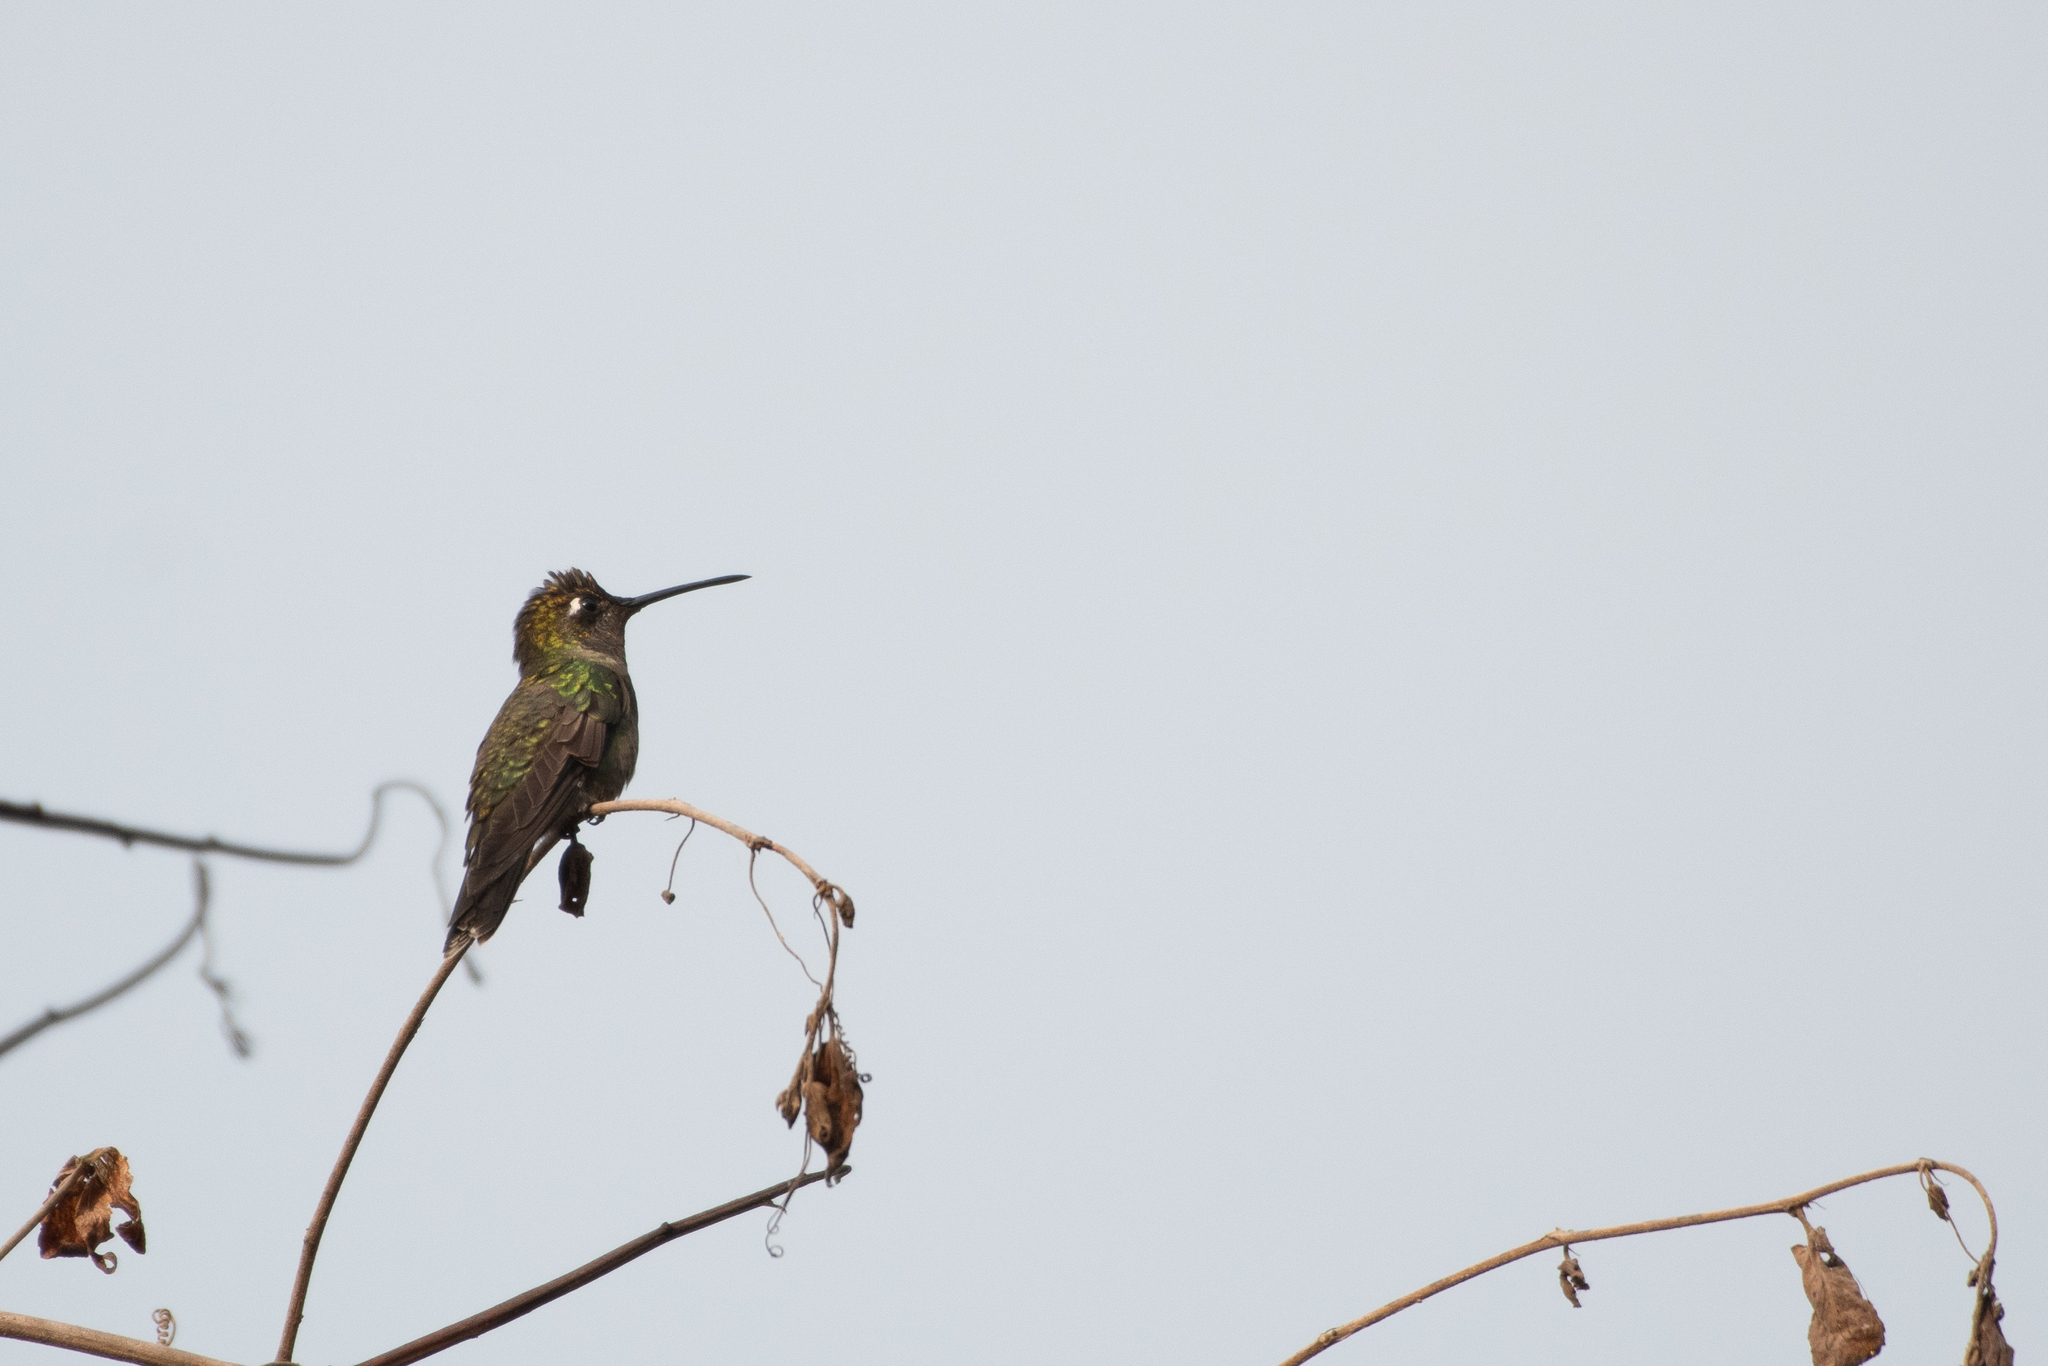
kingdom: Animalia
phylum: Chordata
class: Aves
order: Apodiformes
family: Trochilidae
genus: Eugenes
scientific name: Eugenes fulgens
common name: Magnificent hummingbird
